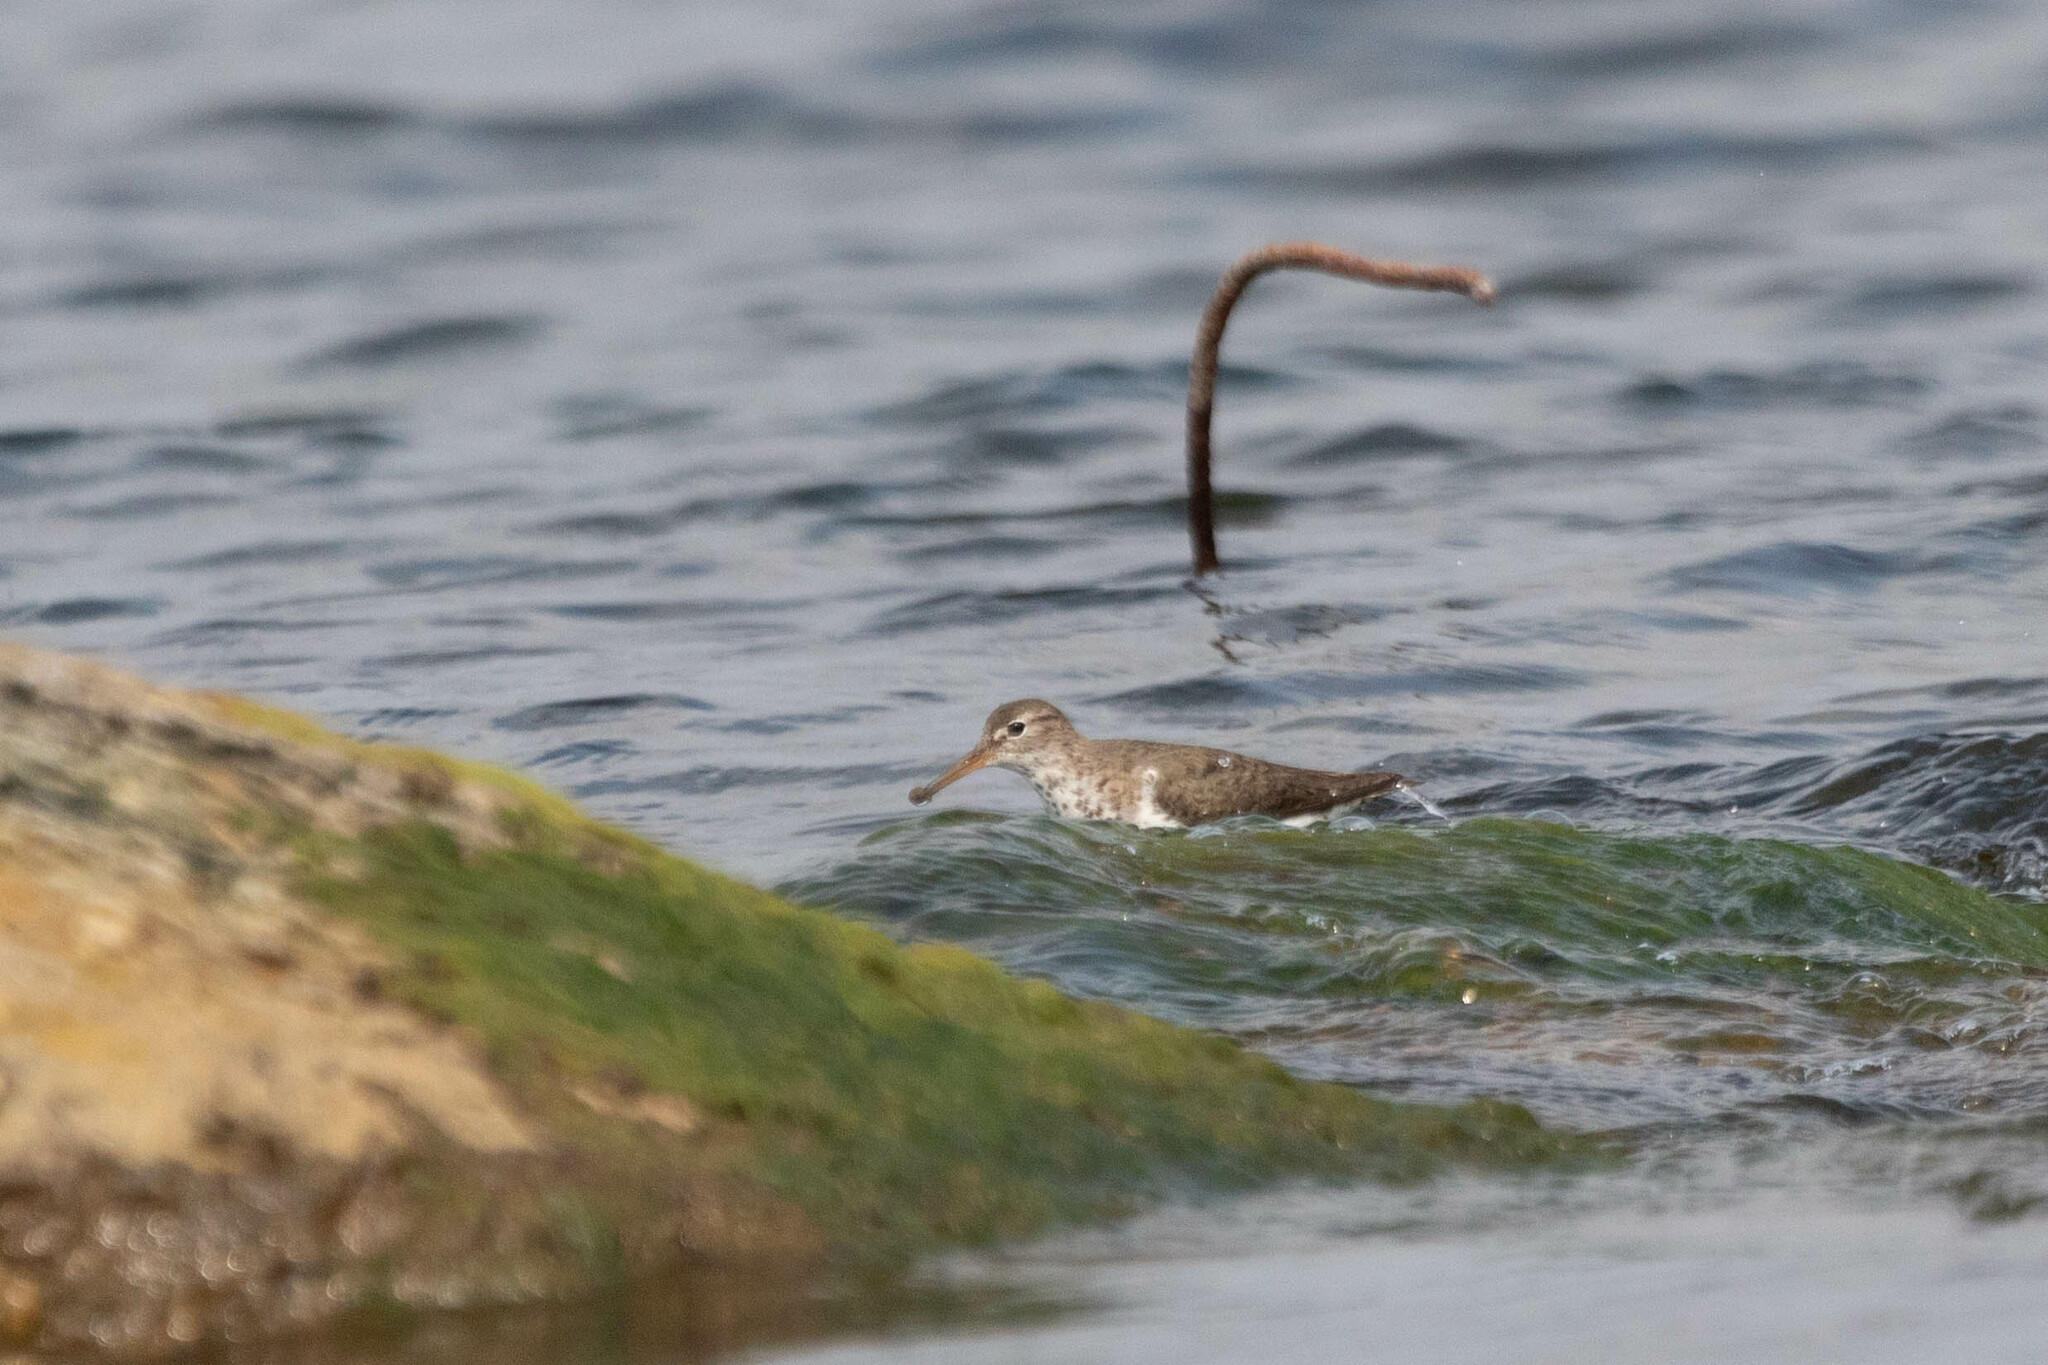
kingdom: Animalia
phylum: Chordata
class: Aves
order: Charadriiformes
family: Scolopacidae
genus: Actitis
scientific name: Actitis macularius
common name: Spotted sandpiper
